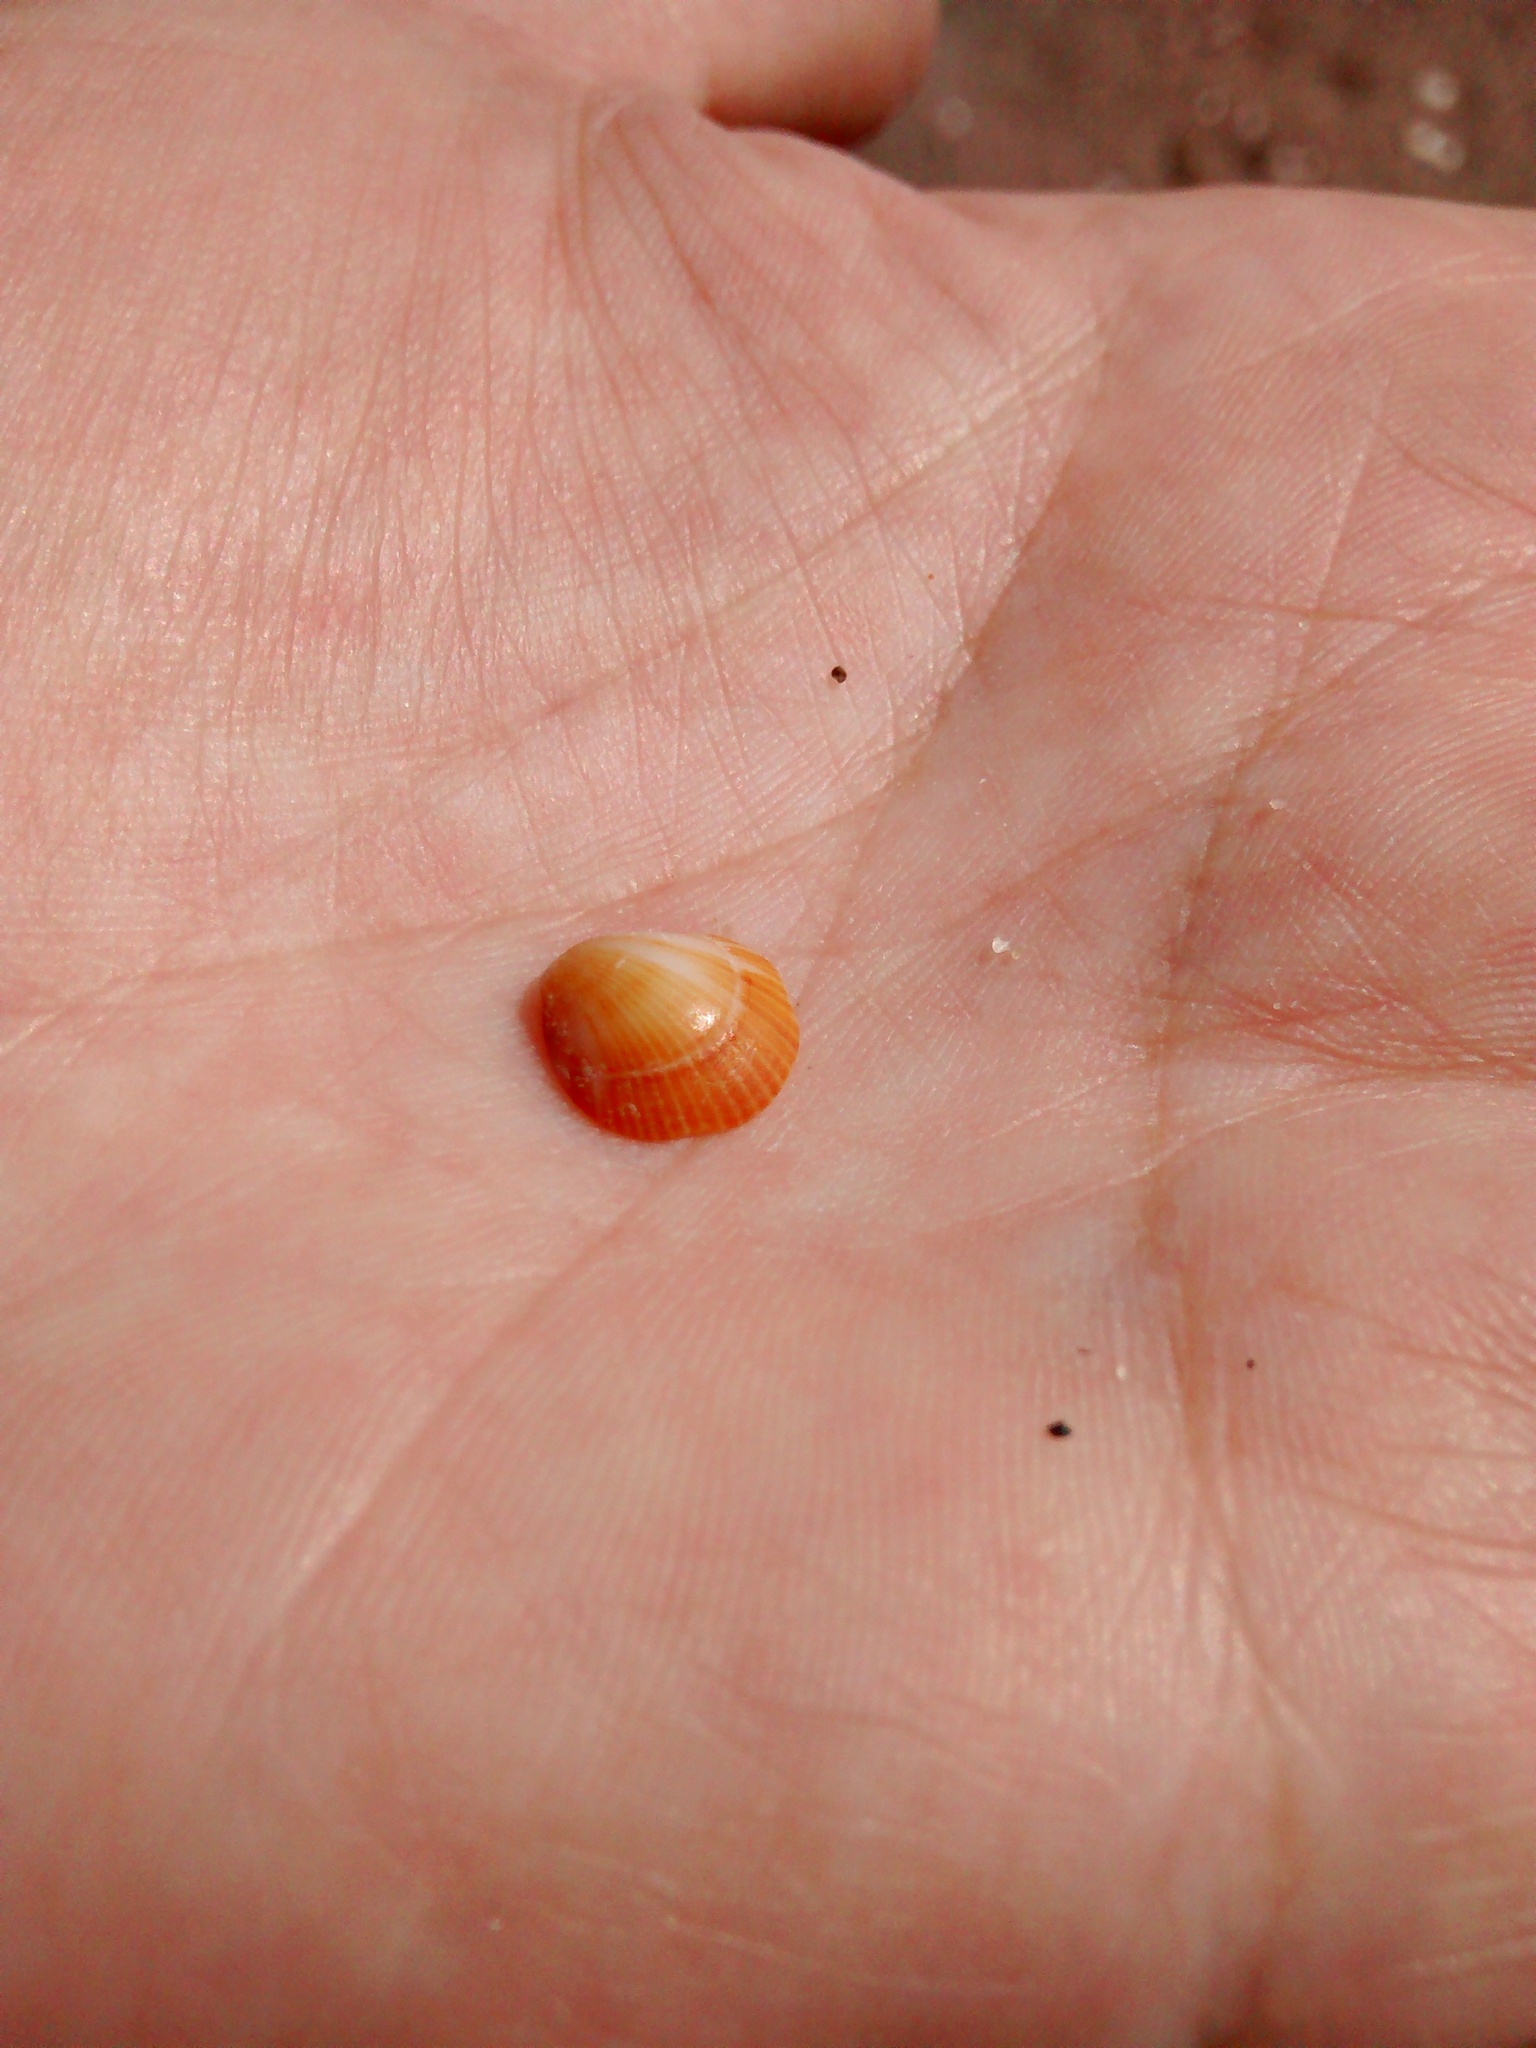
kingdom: Animalia
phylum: Mollusca
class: Bivalvia
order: Arcida
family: Glycymerididae
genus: Glycymeris
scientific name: Glycymeris longior
